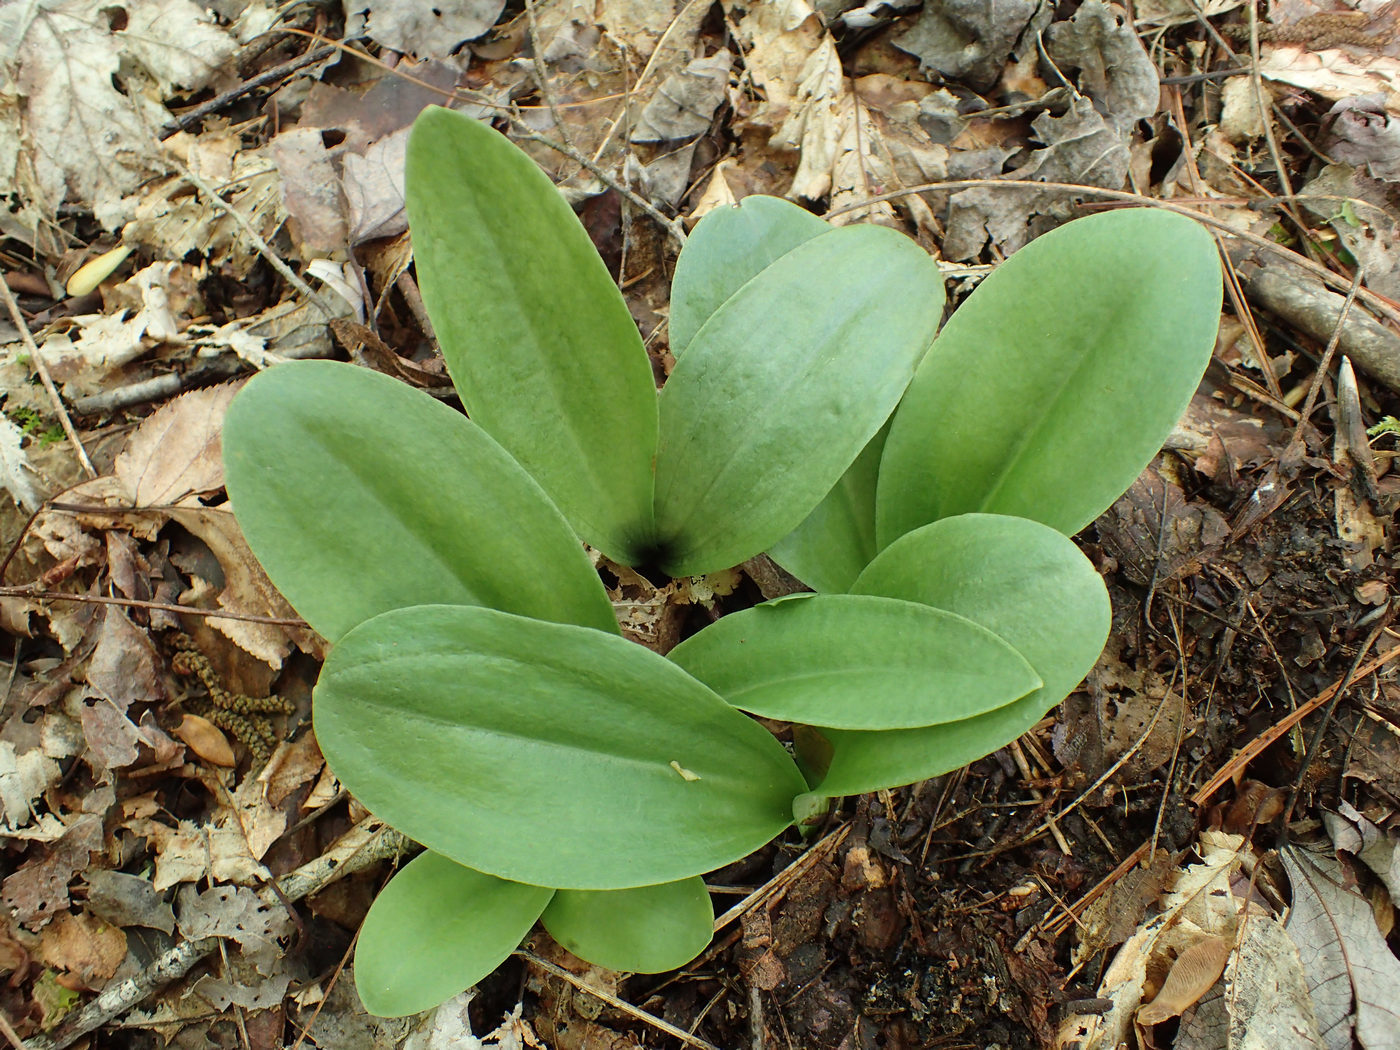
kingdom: Plantae
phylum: Tracheophyta
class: Liliopsida
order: Asparagales
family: Orchidaceae
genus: Galearis
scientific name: Galearis spectabilis
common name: Purple-hooded orchis
